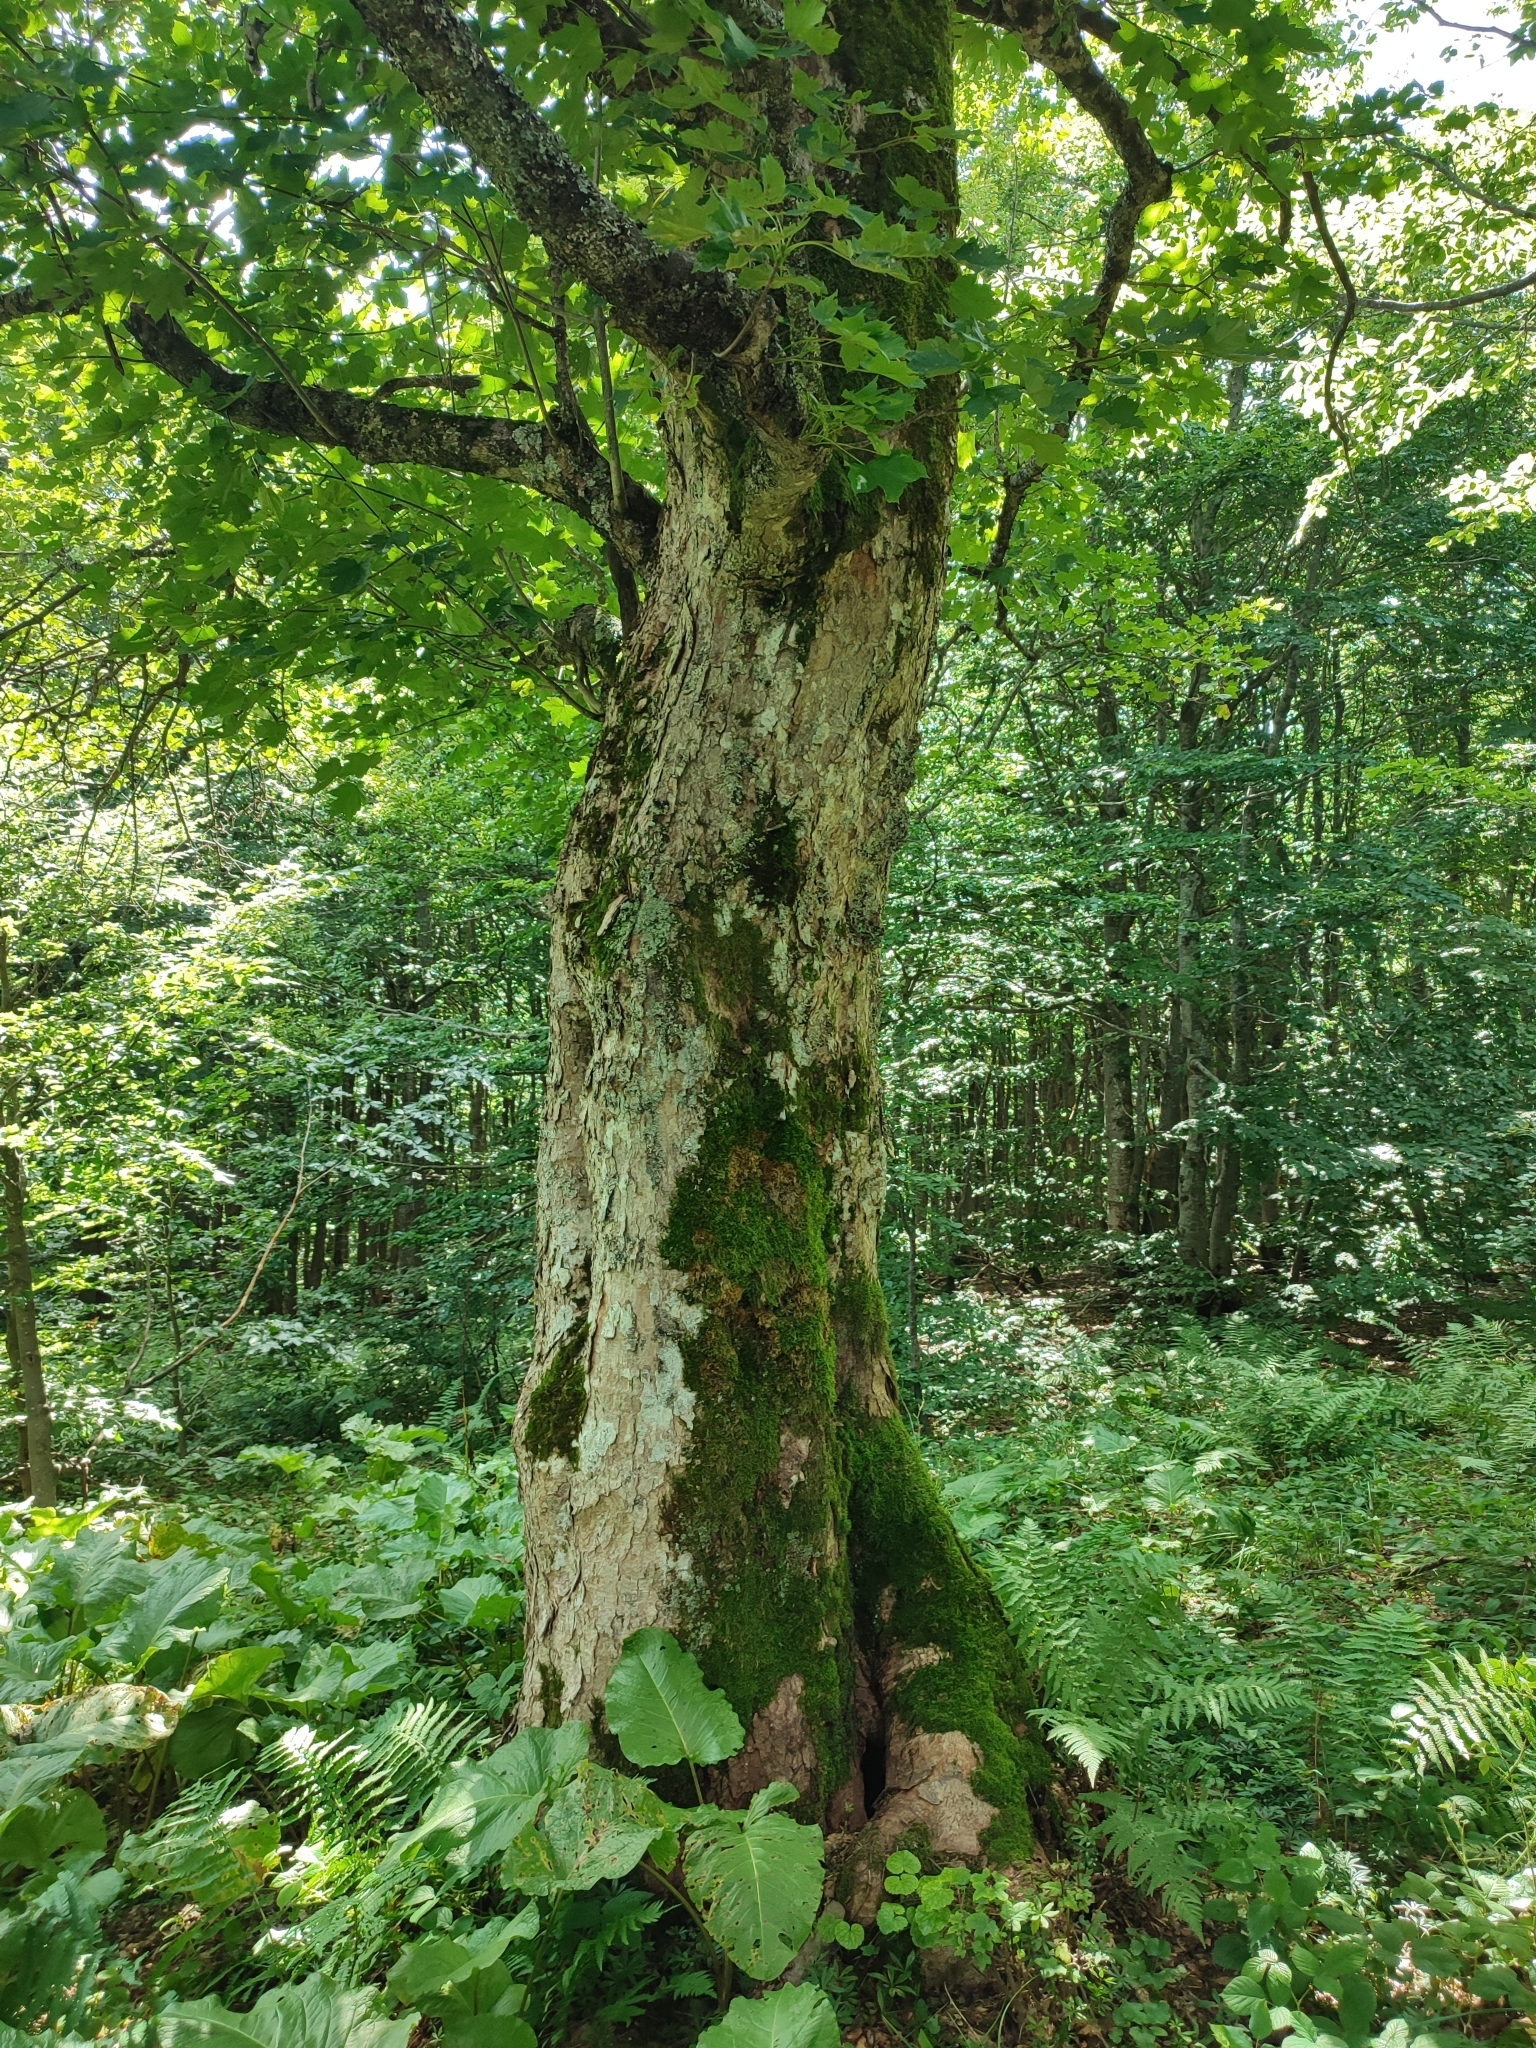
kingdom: Plantae
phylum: Tracheophyta
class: Magnoliopsida
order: Sapindales
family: Sapindaceae
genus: Acer
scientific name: Acer pseudoplatanus
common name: Sycamore
